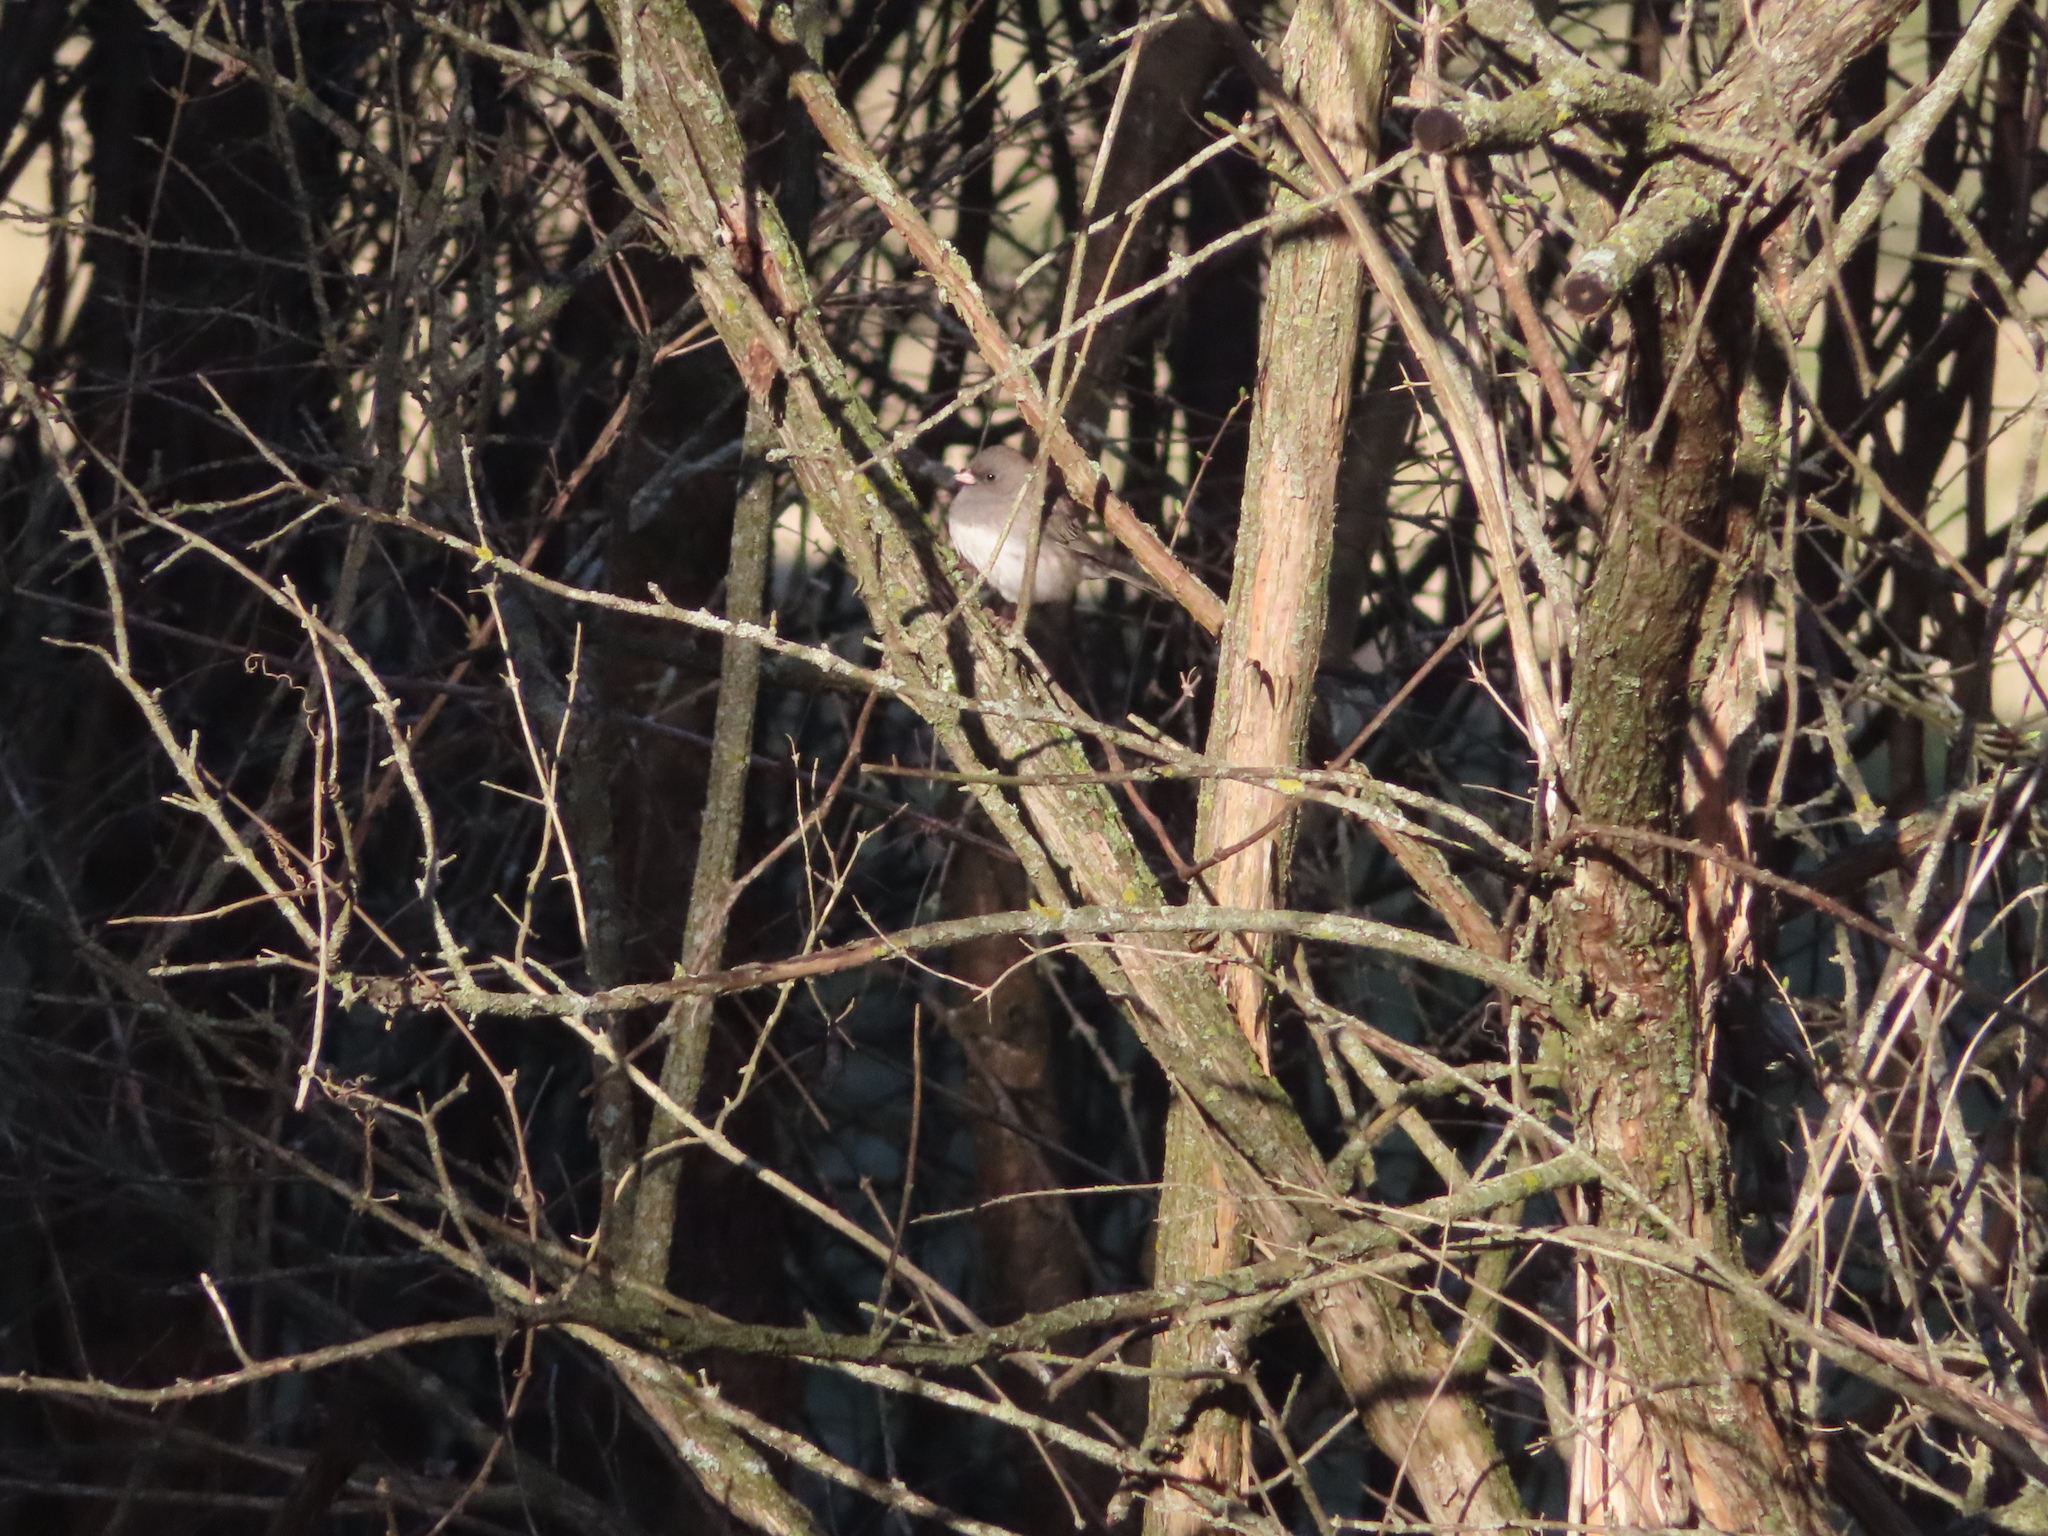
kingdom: Animalia
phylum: Chordata
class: Aves
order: Passeriformes
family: Passerellidae
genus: Junco
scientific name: Junco hyemalis
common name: Dark-eyed junco
